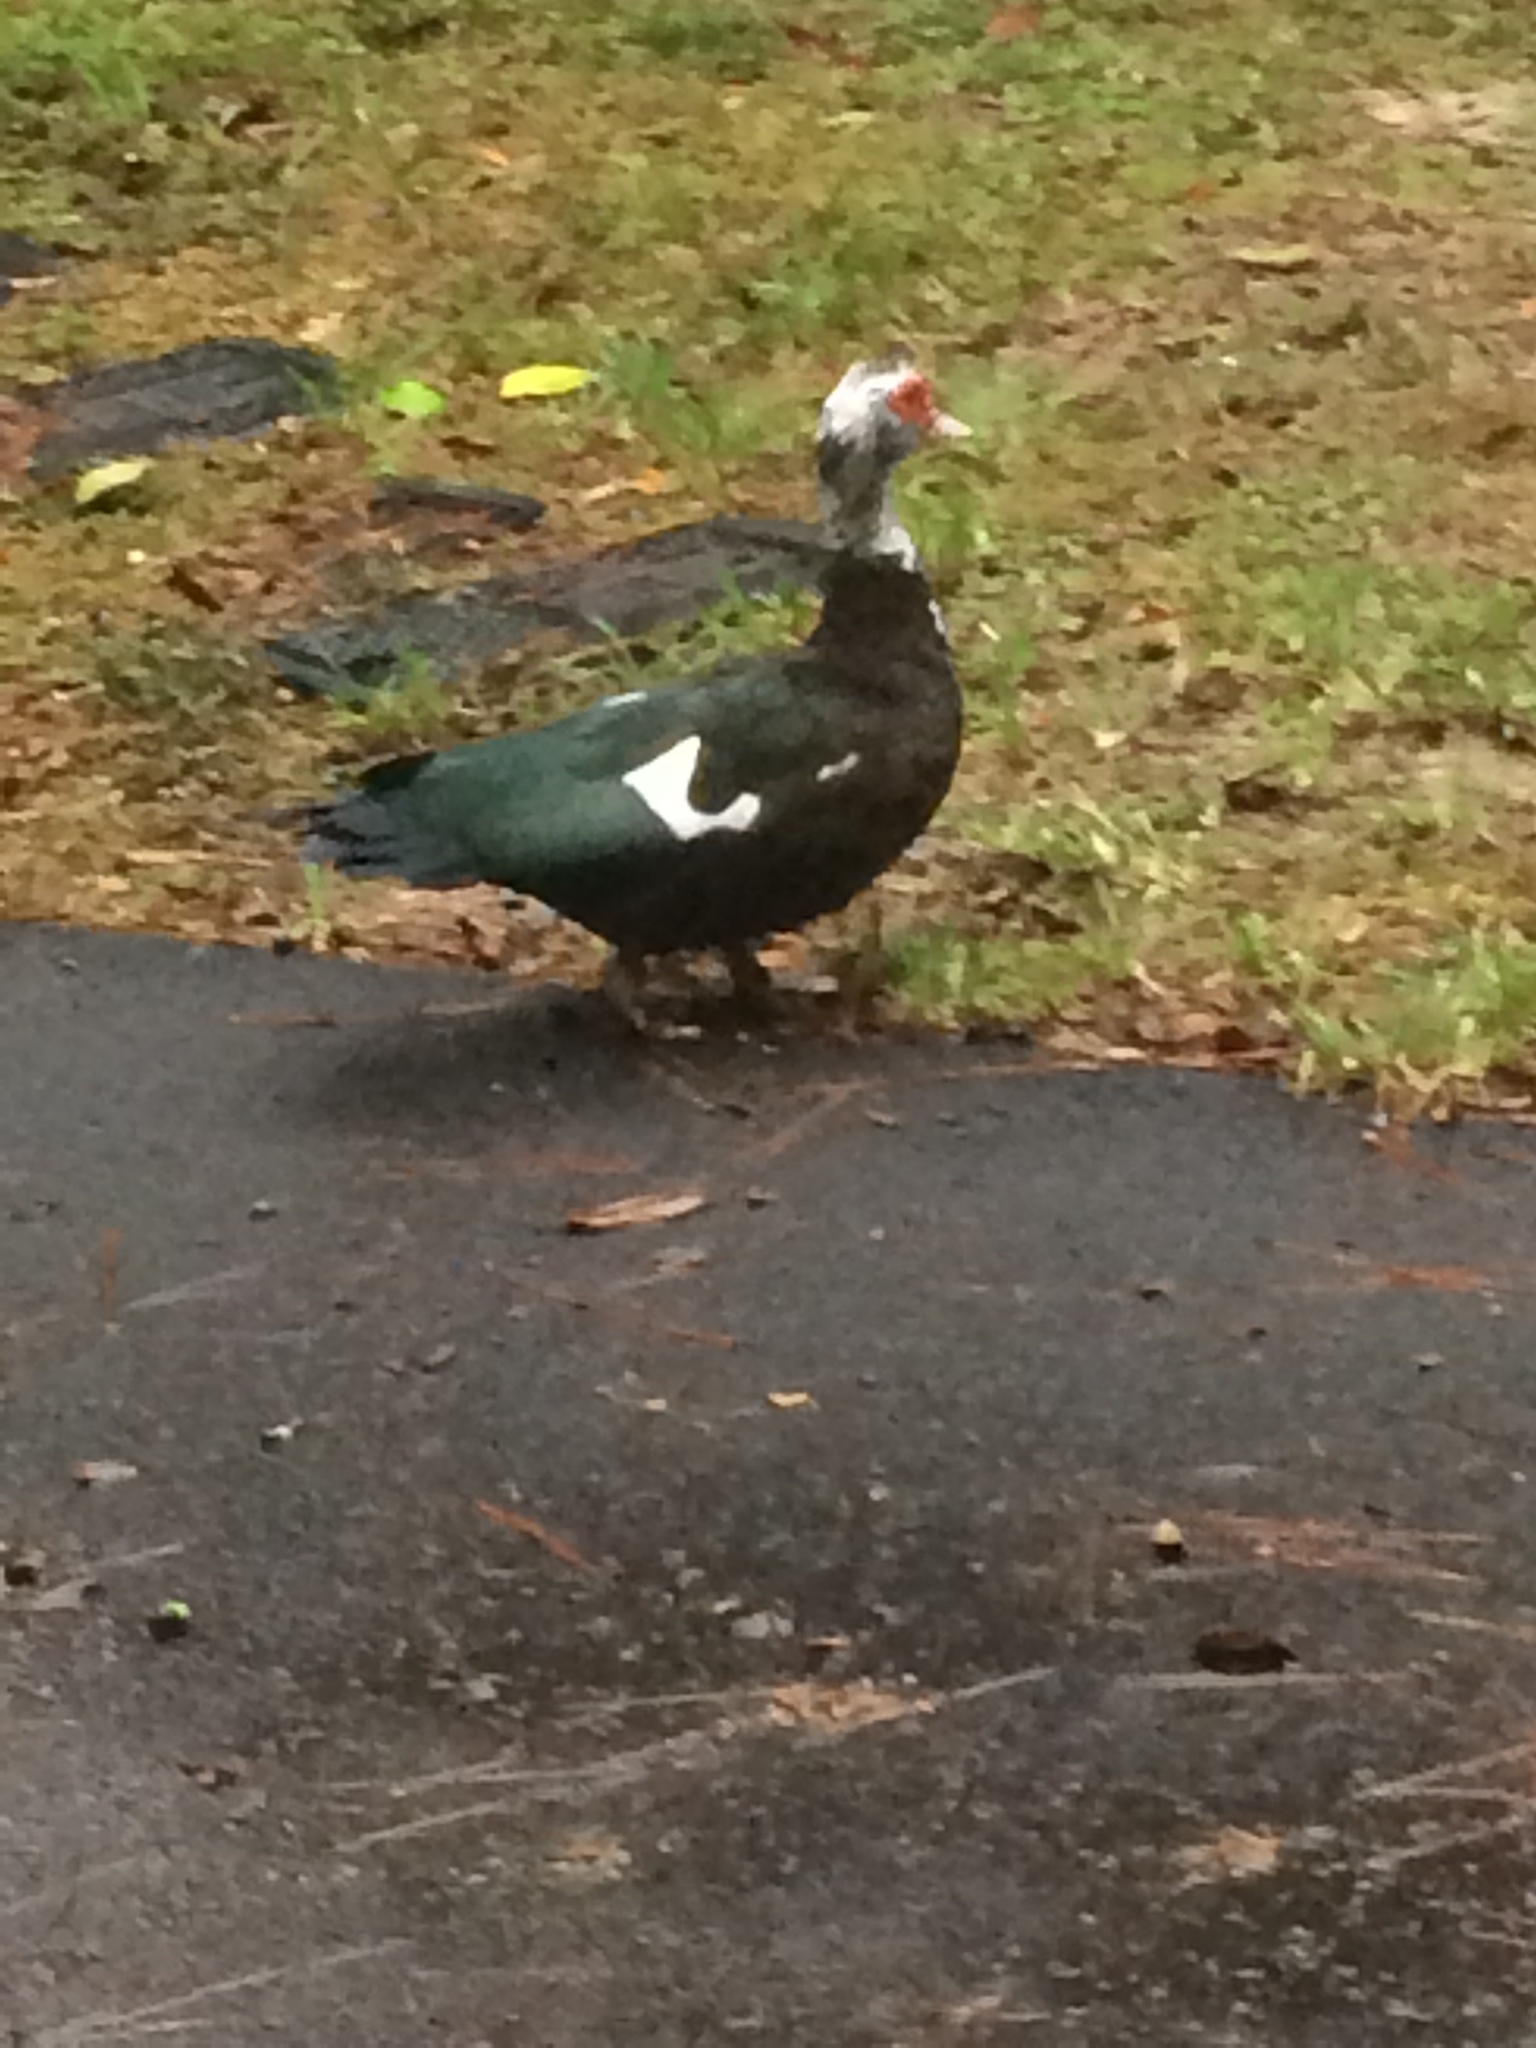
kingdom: Animalia
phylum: Chordata
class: Aves
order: Anseriformes
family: Anatidae
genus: Cairina
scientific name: Cairina moschata
